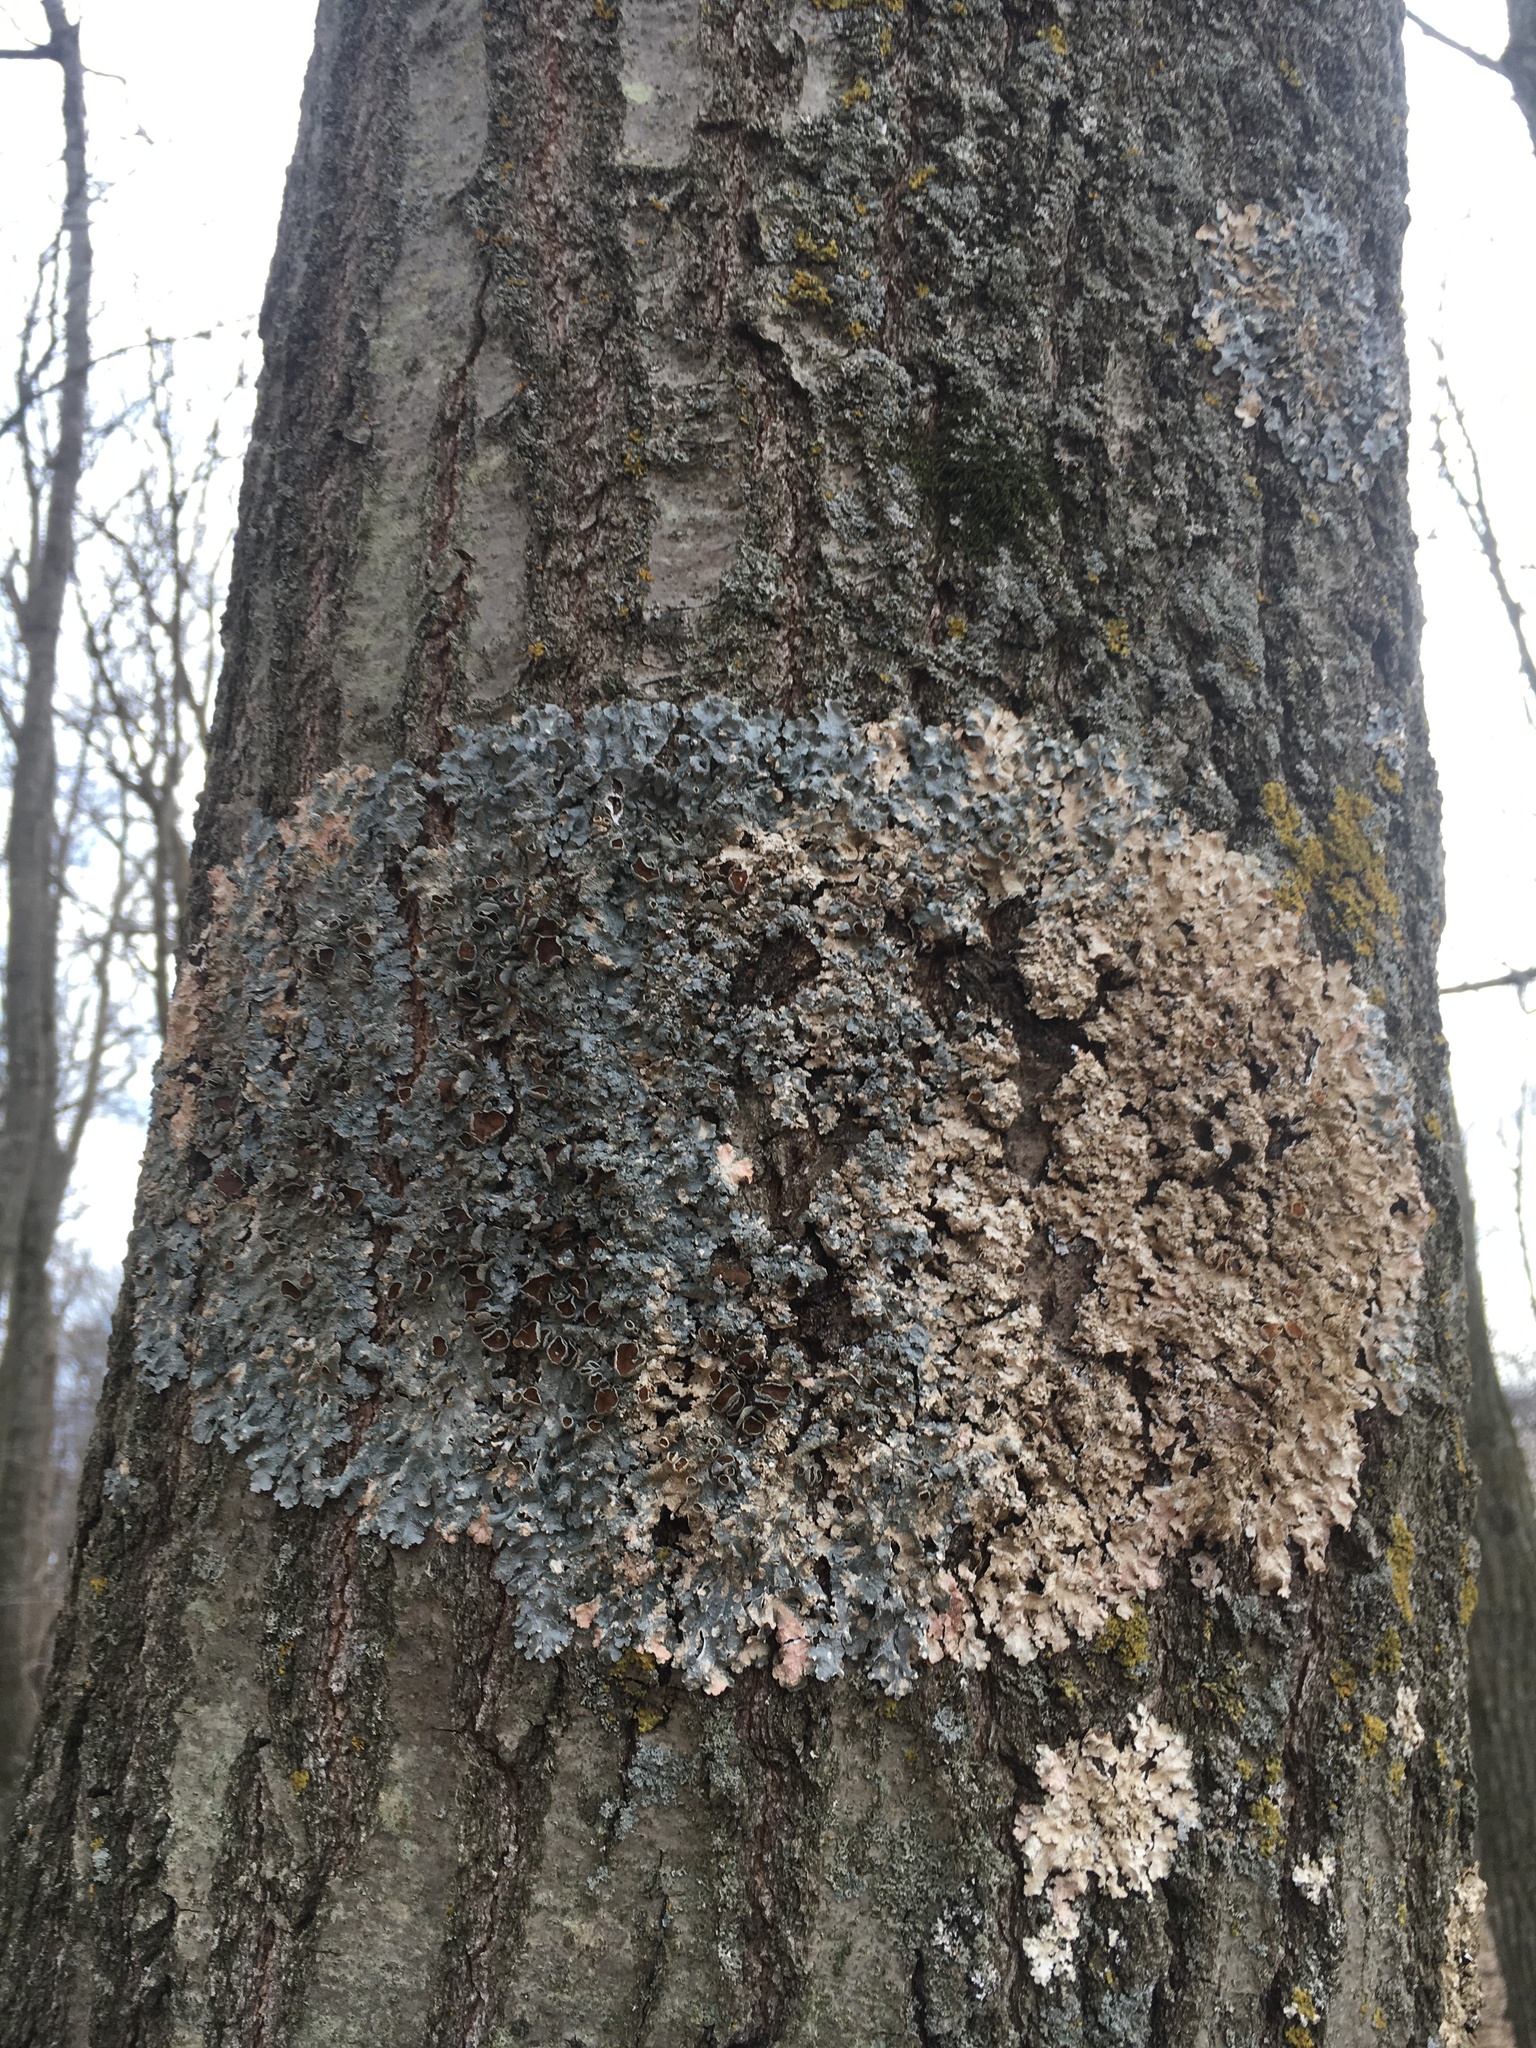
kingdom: Fungi
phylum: Ascomycota
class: Lecanoromycetes
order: Lecanorales
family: Parmeliaceae
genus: Punctelia
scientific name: Punctelia bolliana
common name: Eastern speckled shield lichen
